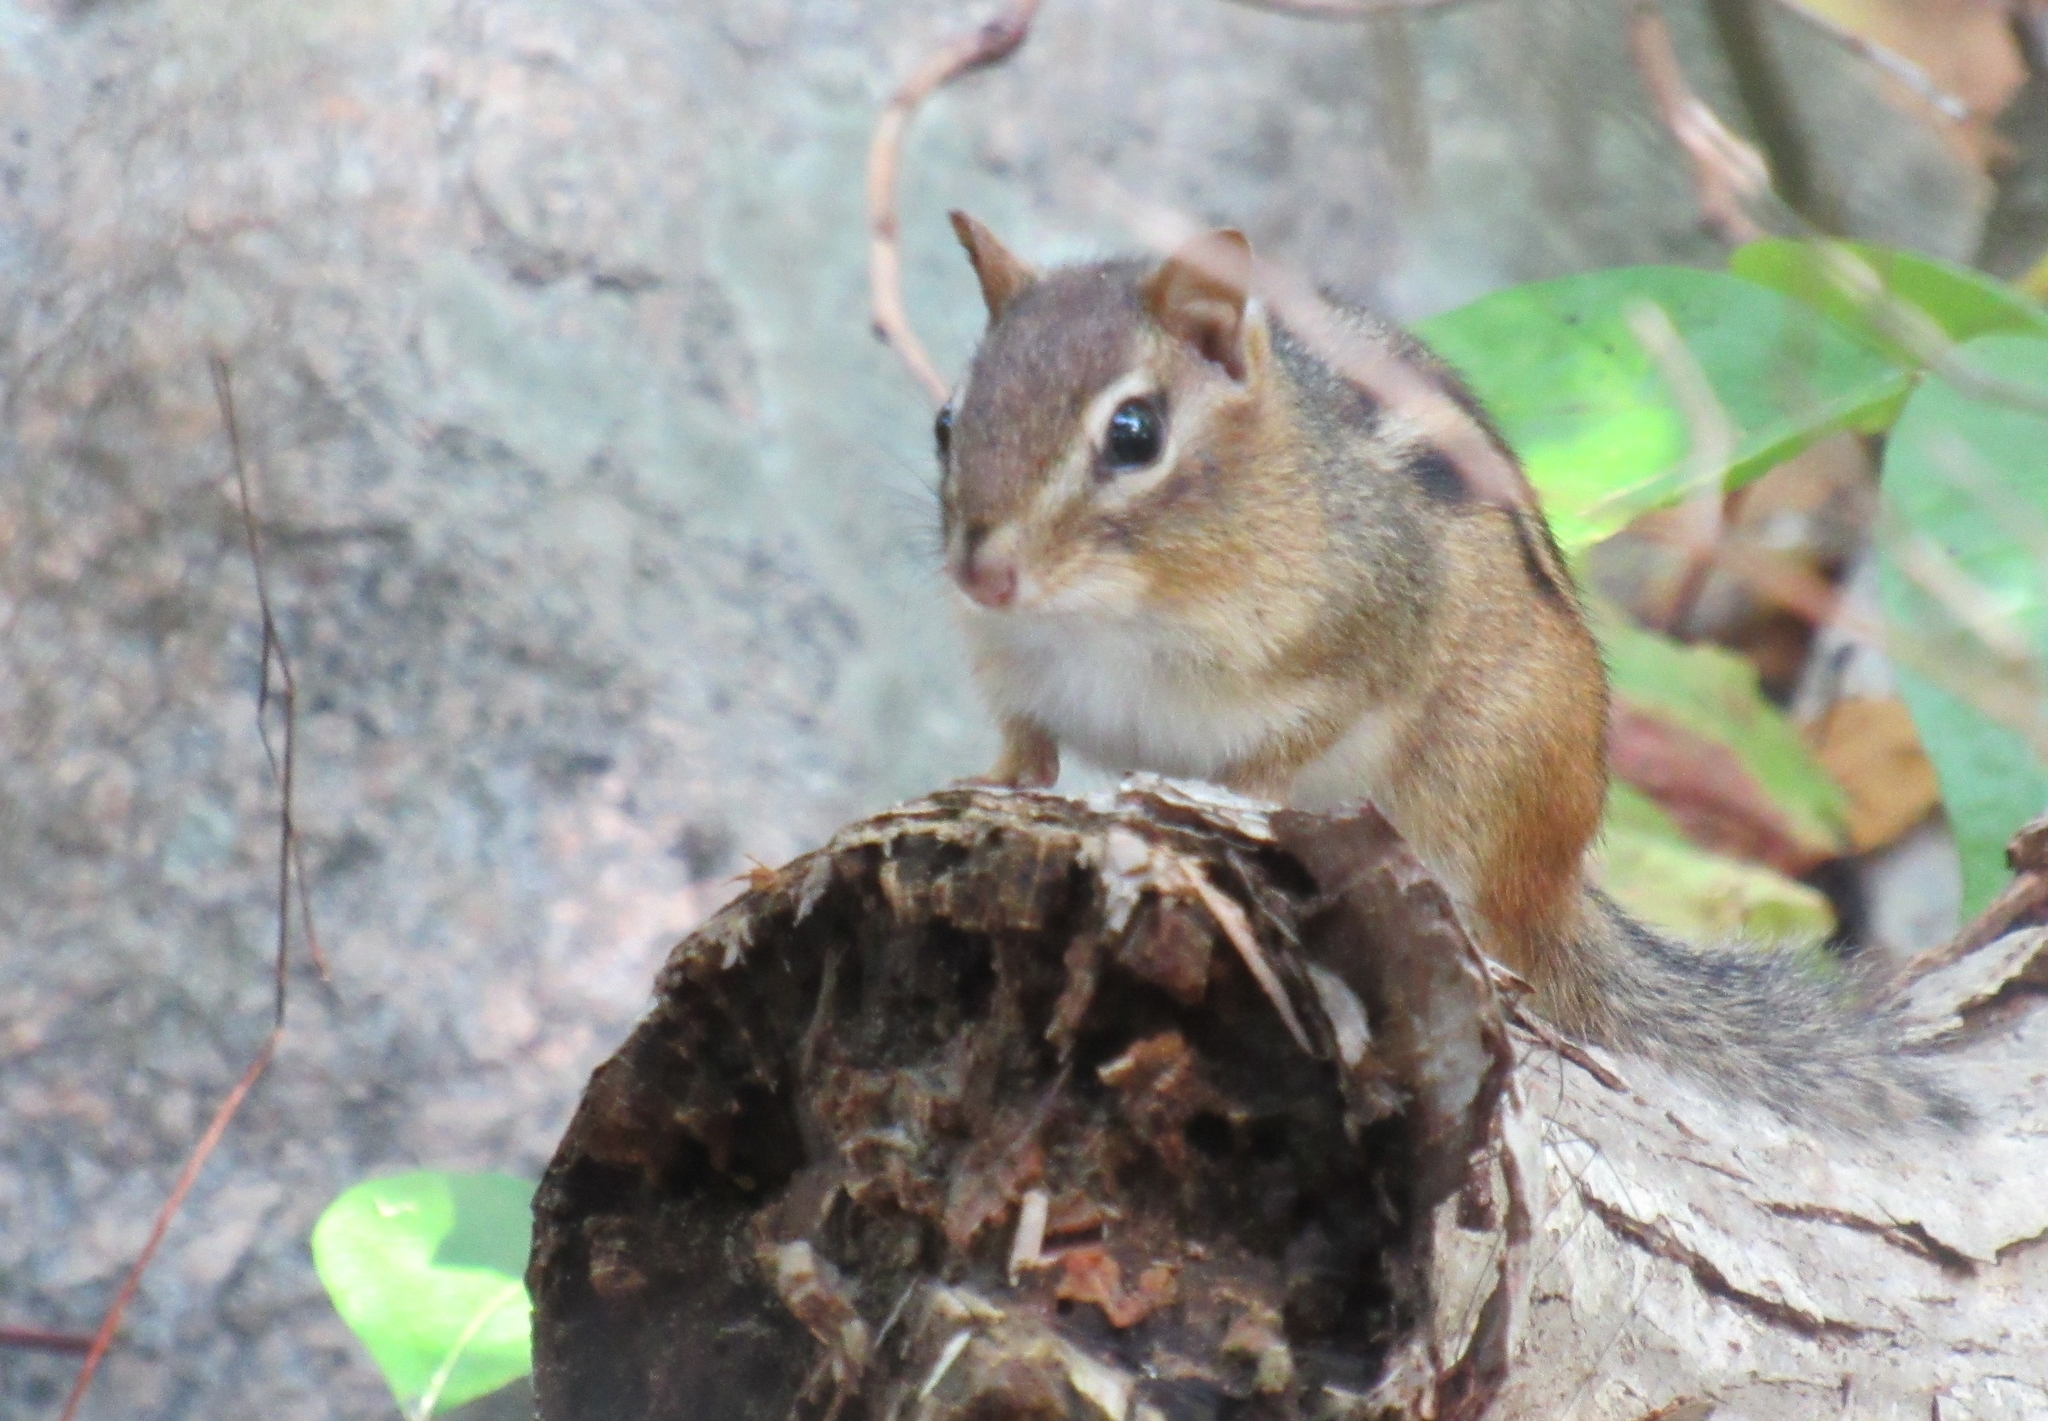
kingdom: Animalia
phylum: Chordata
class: Mammalia
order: Rodentia
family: Sciuridae
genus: Tamias
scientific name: Tamias striatus
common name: Eastern chipmunk
